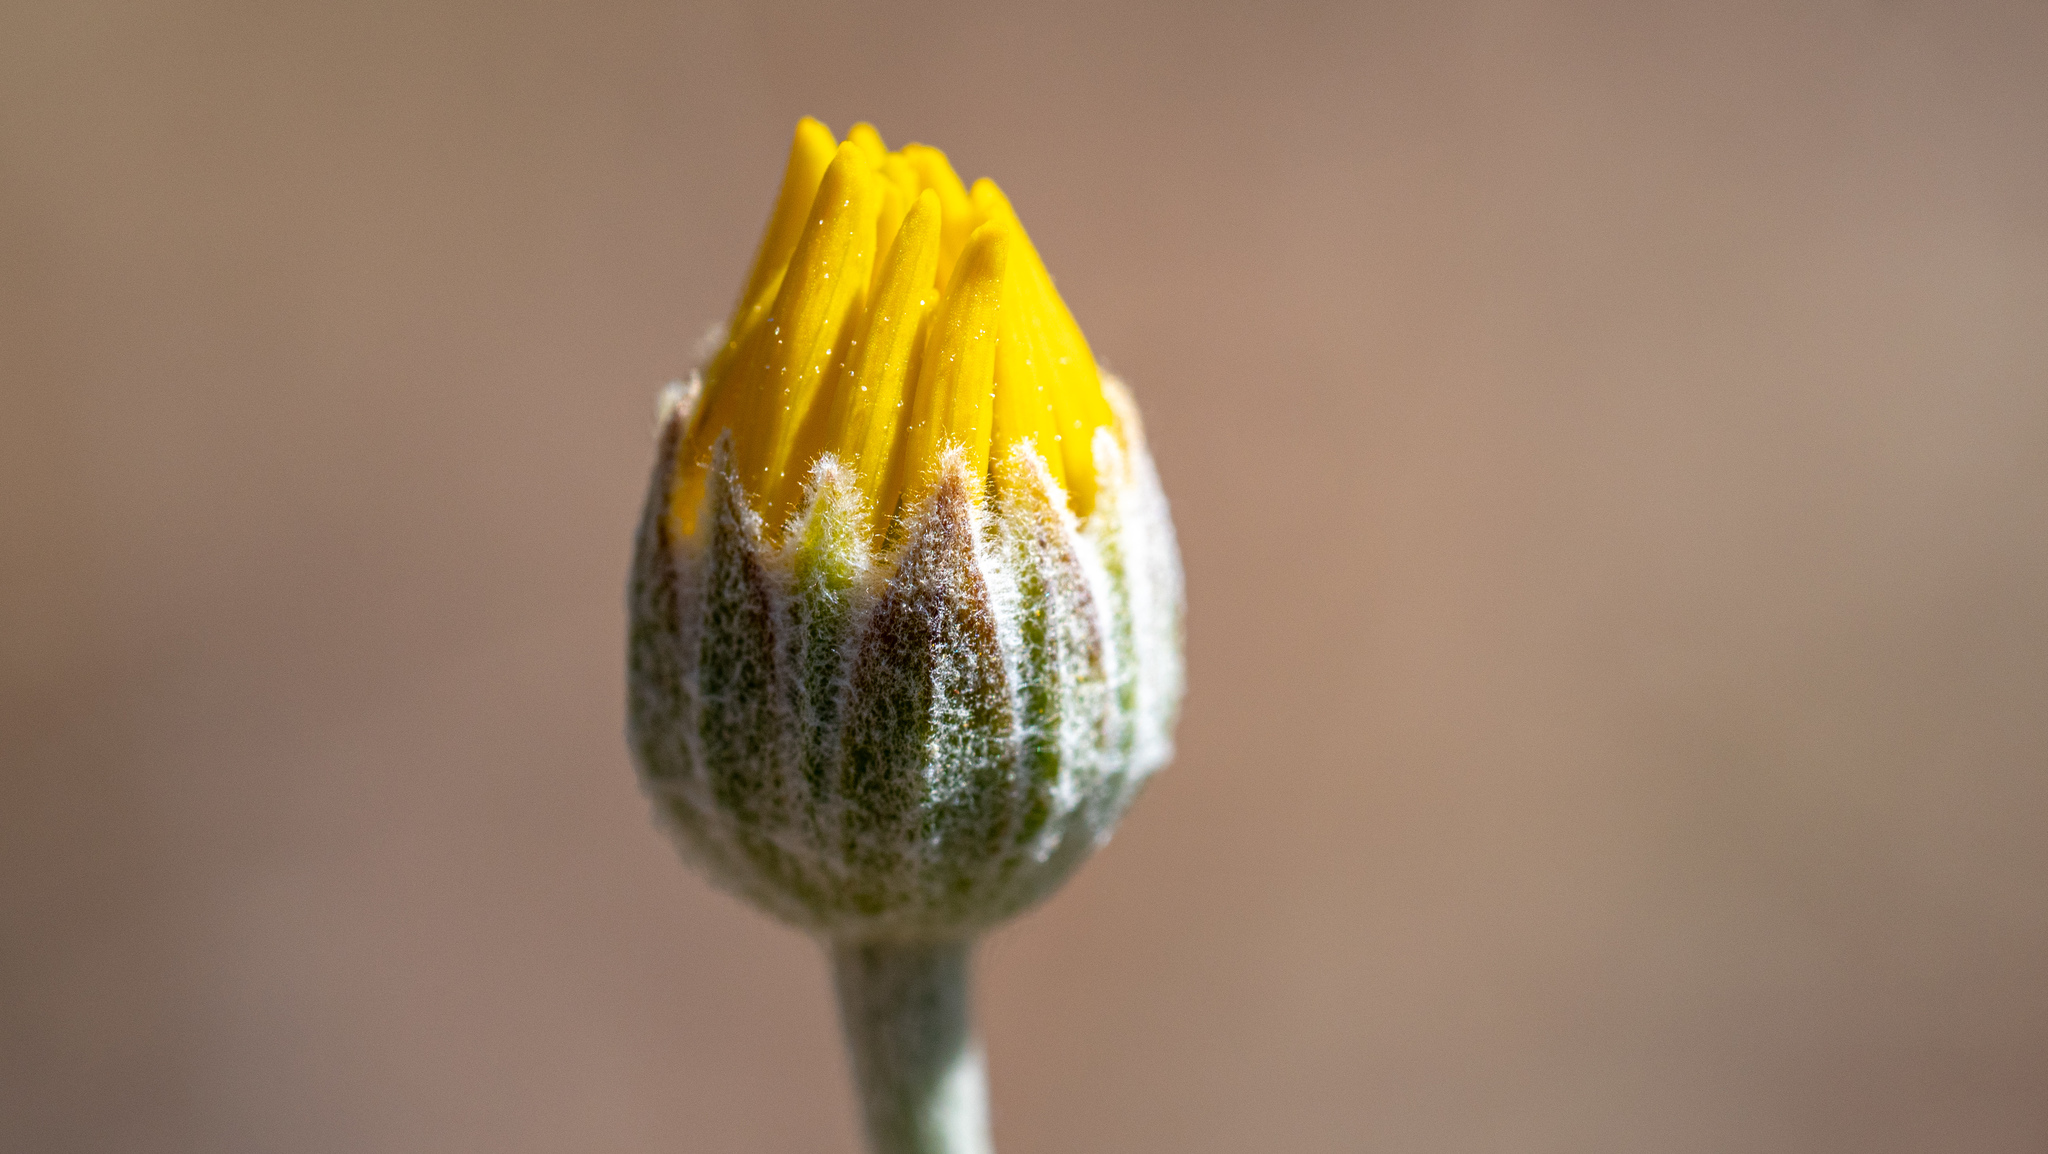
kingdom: Plantae
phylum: Tracheophyta
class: Magnoliopsida
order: Asterales
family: Asteraceae
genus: Eriophyllum
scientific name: Eriophyllum lanatum
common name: Common woolly-sunflower
